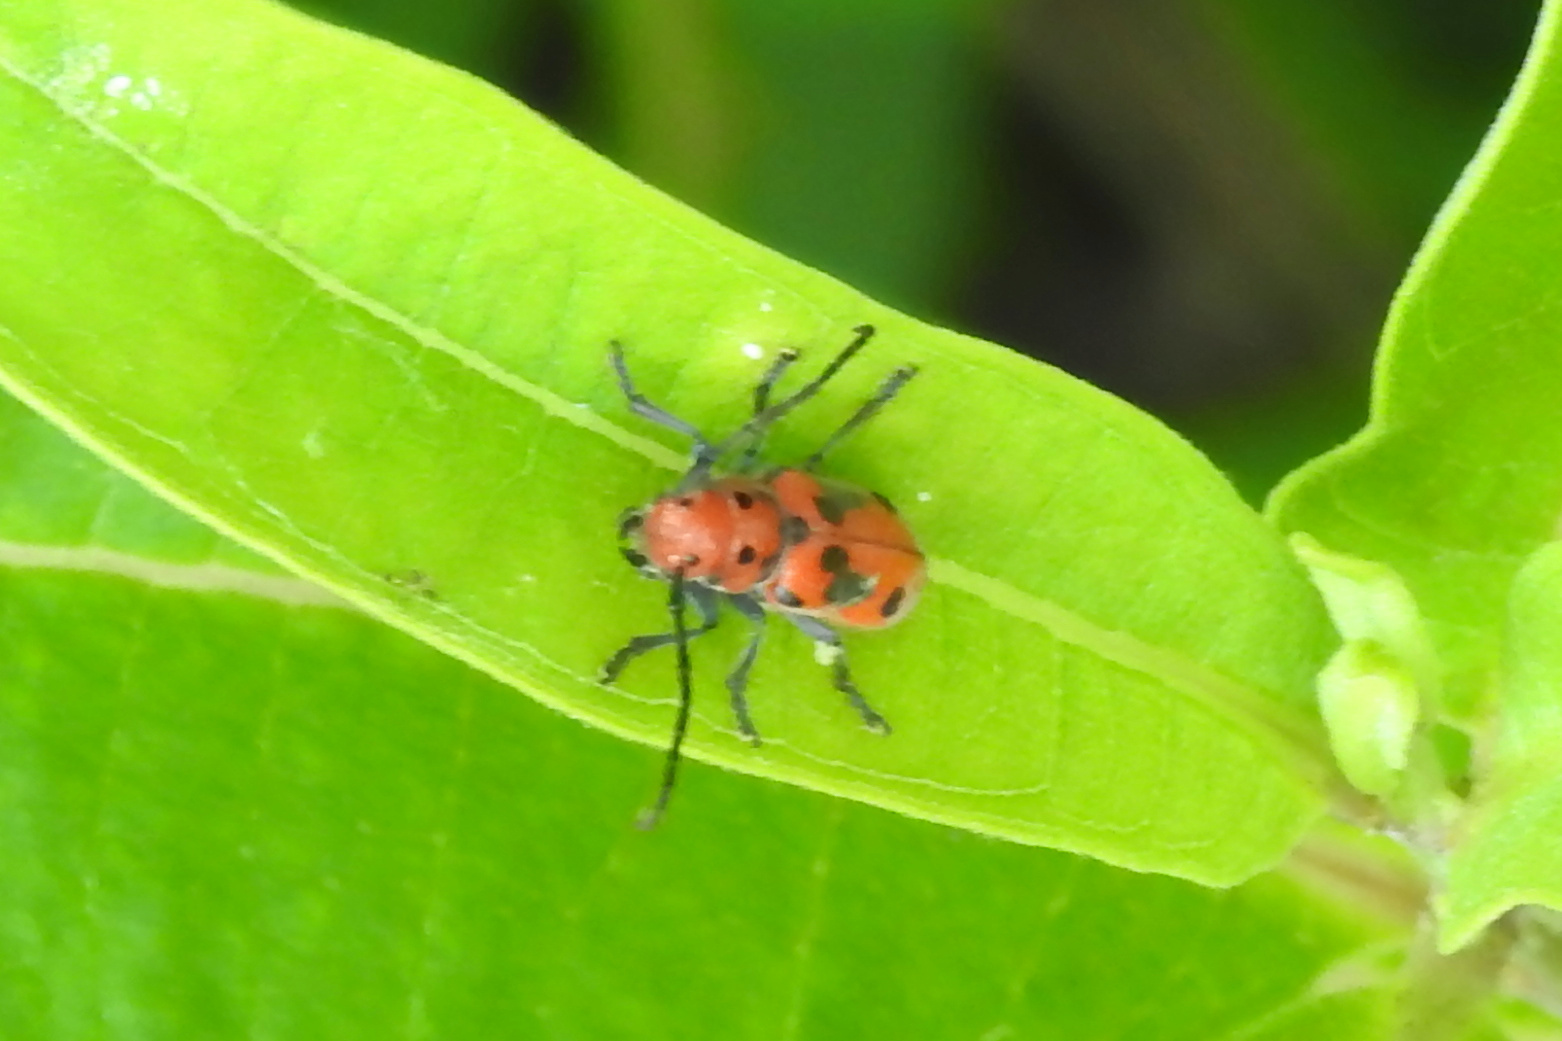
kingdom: Animalia
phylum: Arthropoda
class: Insecta
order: Coleoptera
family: Cerambycidae
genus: Tetraopes
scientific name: Tetraopes tetrophthalmus
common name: Red milkweed beetle
